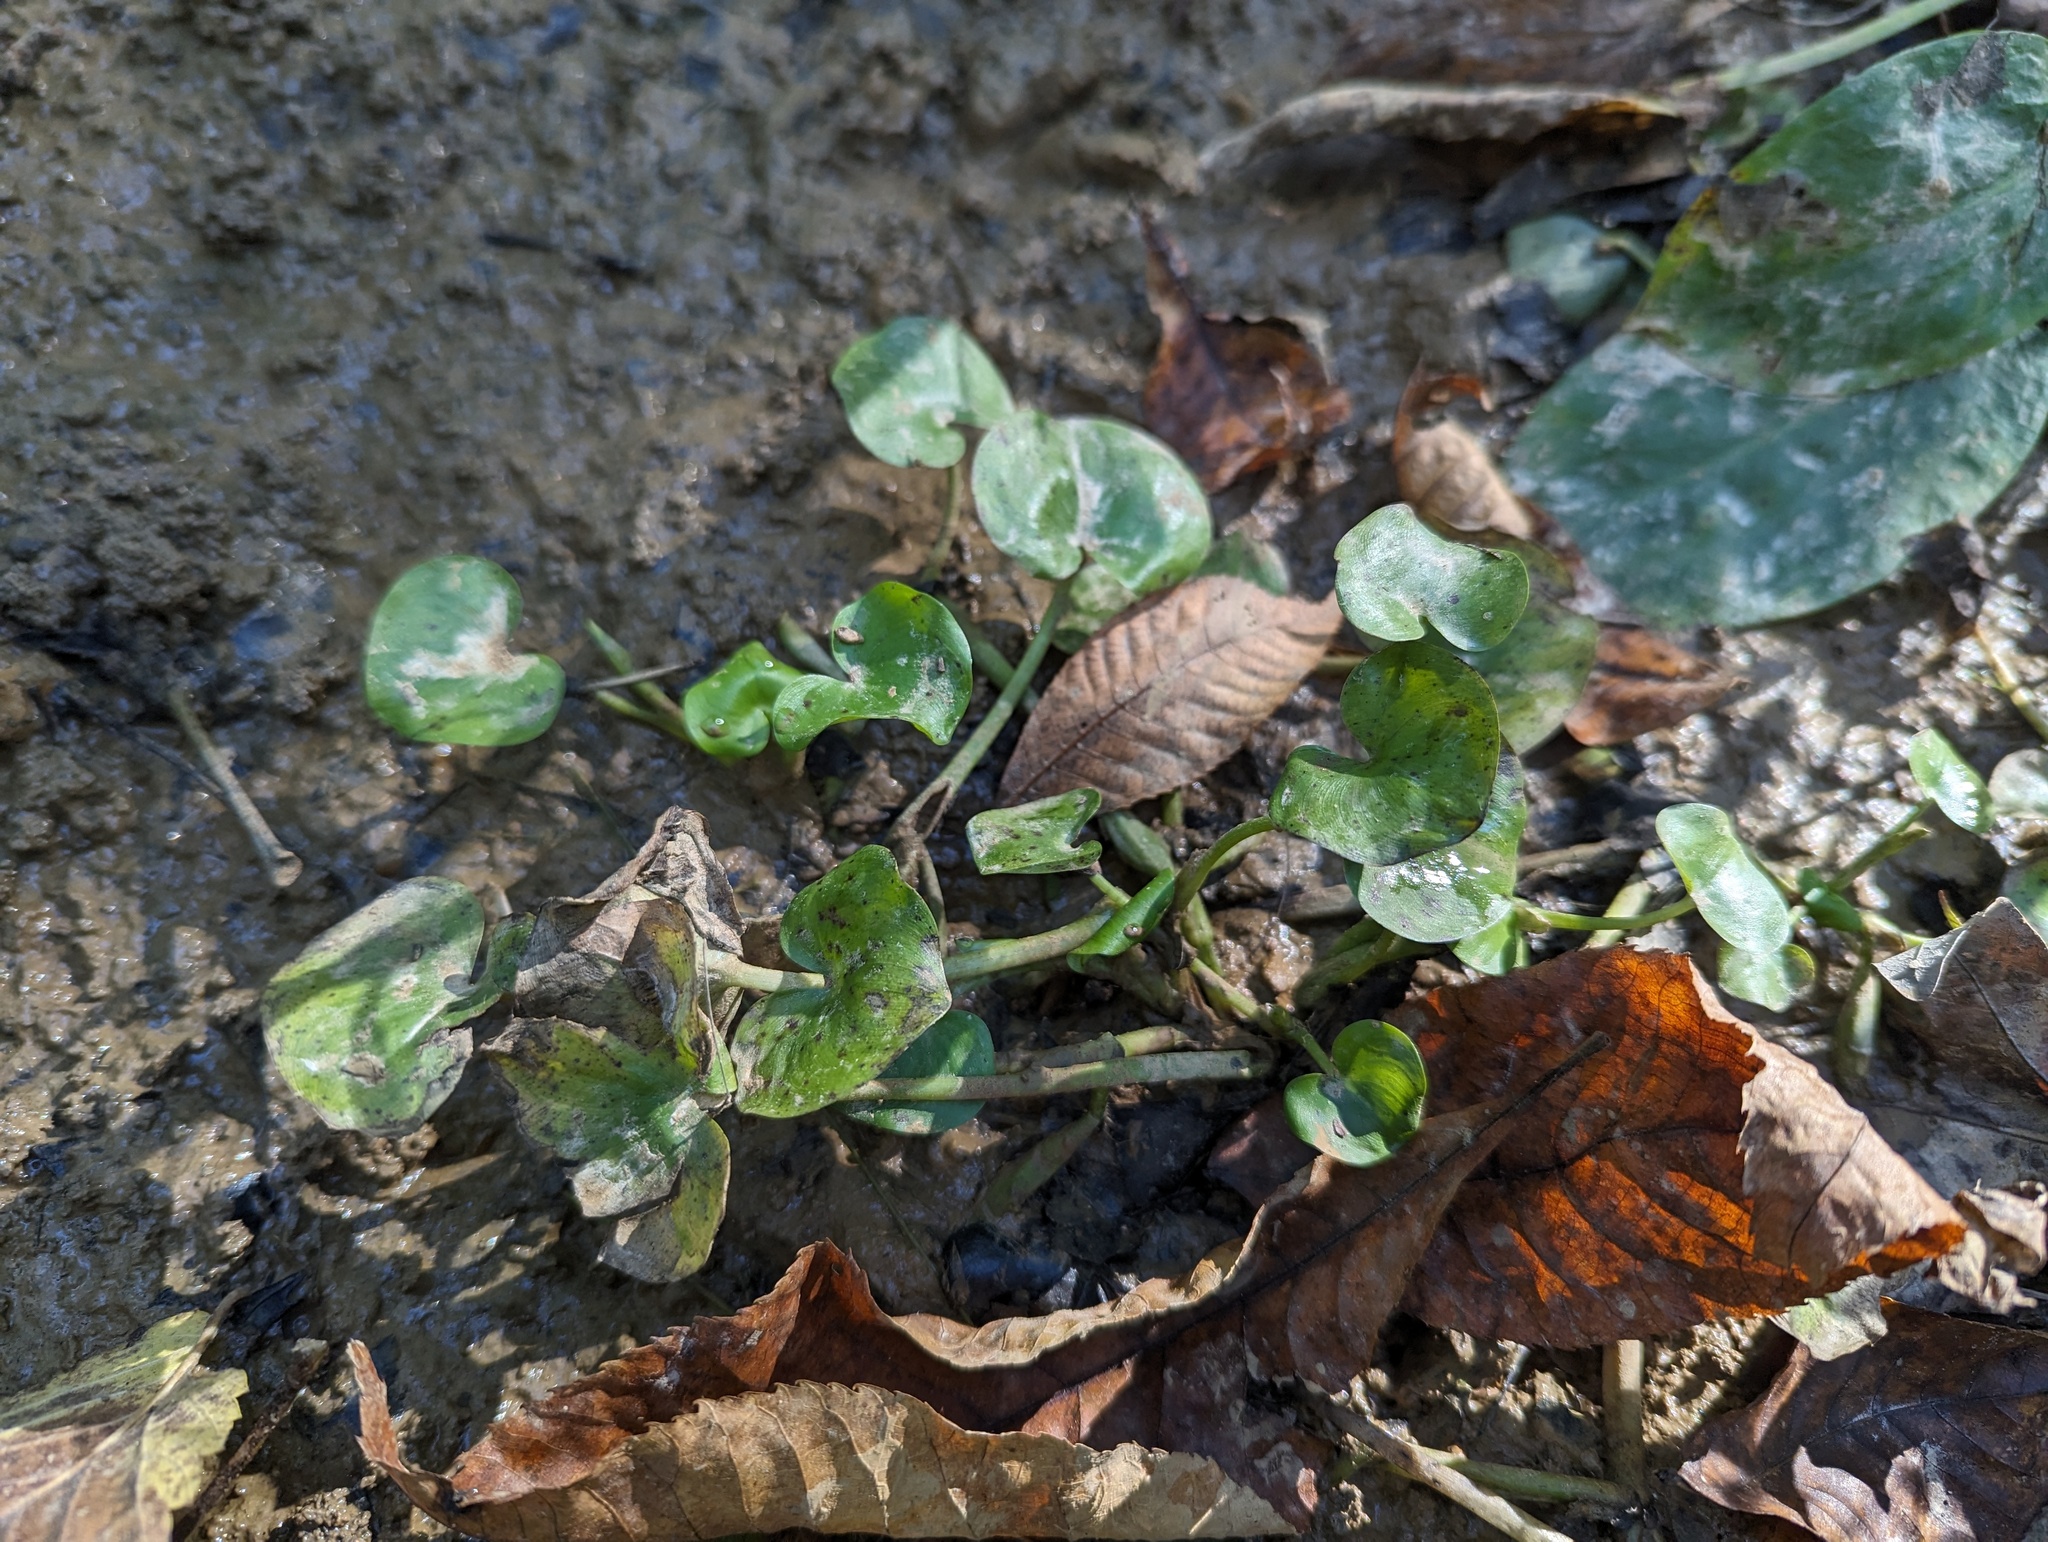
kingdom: Plantae
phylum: Tracheophyta
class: Liliopsida
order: Commelinales
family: Pontederiaceae
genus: Heteranthera
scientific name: Heteranthera reniformis
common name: Kidneyleaf mudplantain
